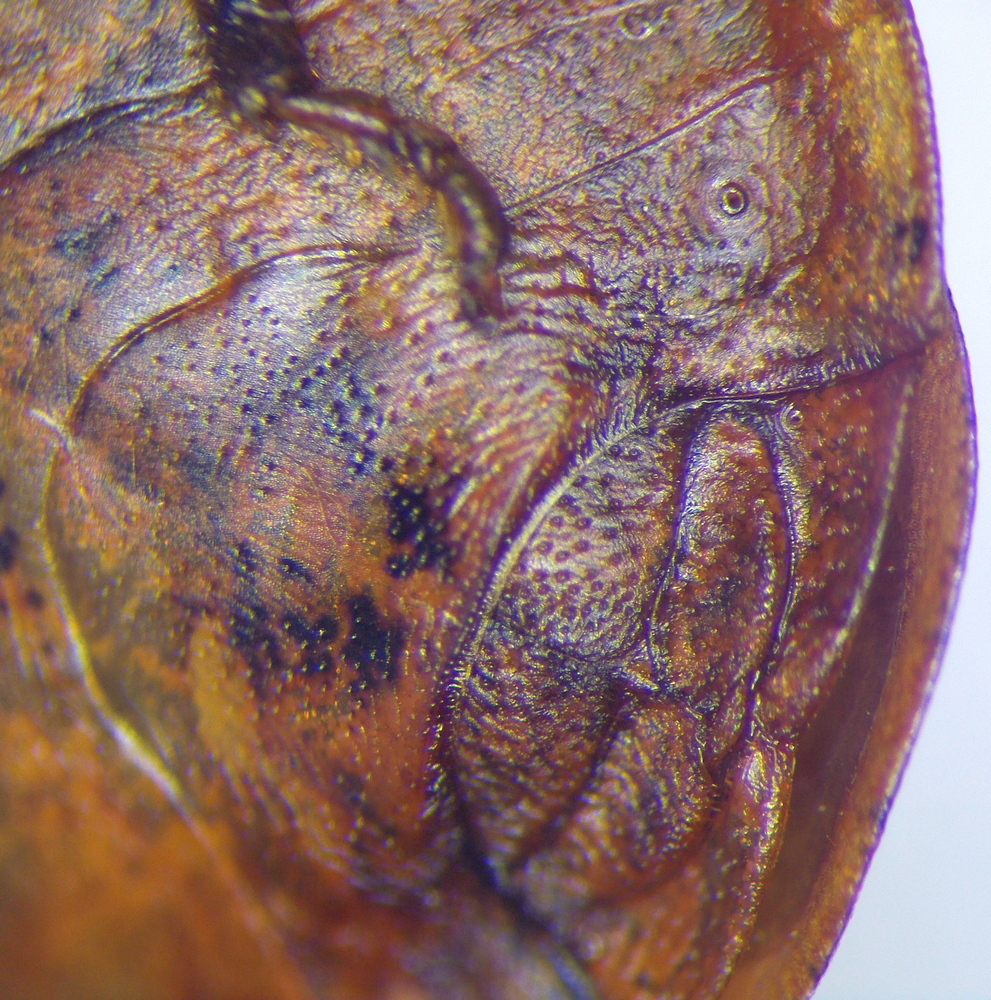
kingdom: Animalia
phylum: Arthropoda
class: Insecta
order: Hemiptera
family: Scutelleridae
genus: Eurygaster
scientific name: Eurygaster integriceps
